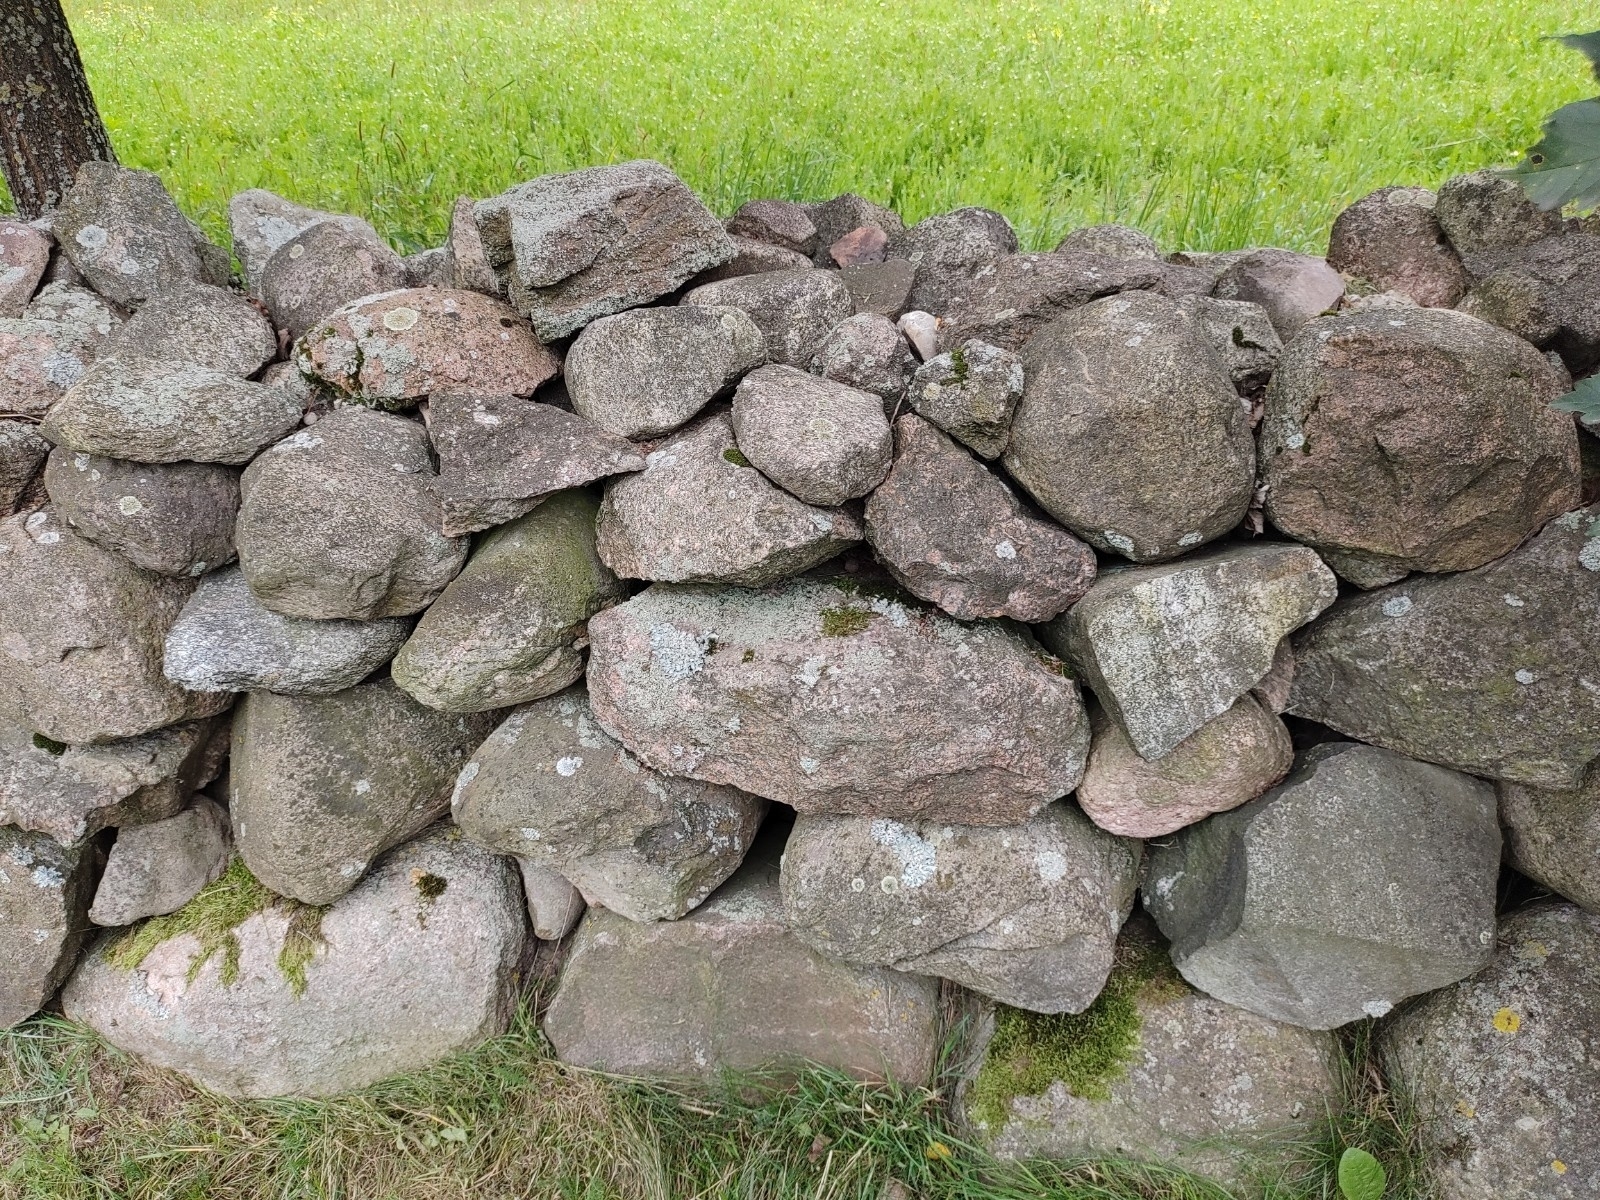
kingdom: Fungi
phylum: Ascomycota
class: Lecanoromycetes
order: Lecanorales
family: Lecanoraceae
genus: Protoparmeliopsis
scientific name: Protoparmeliopsis muralis
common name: Stonewall rim lichen
